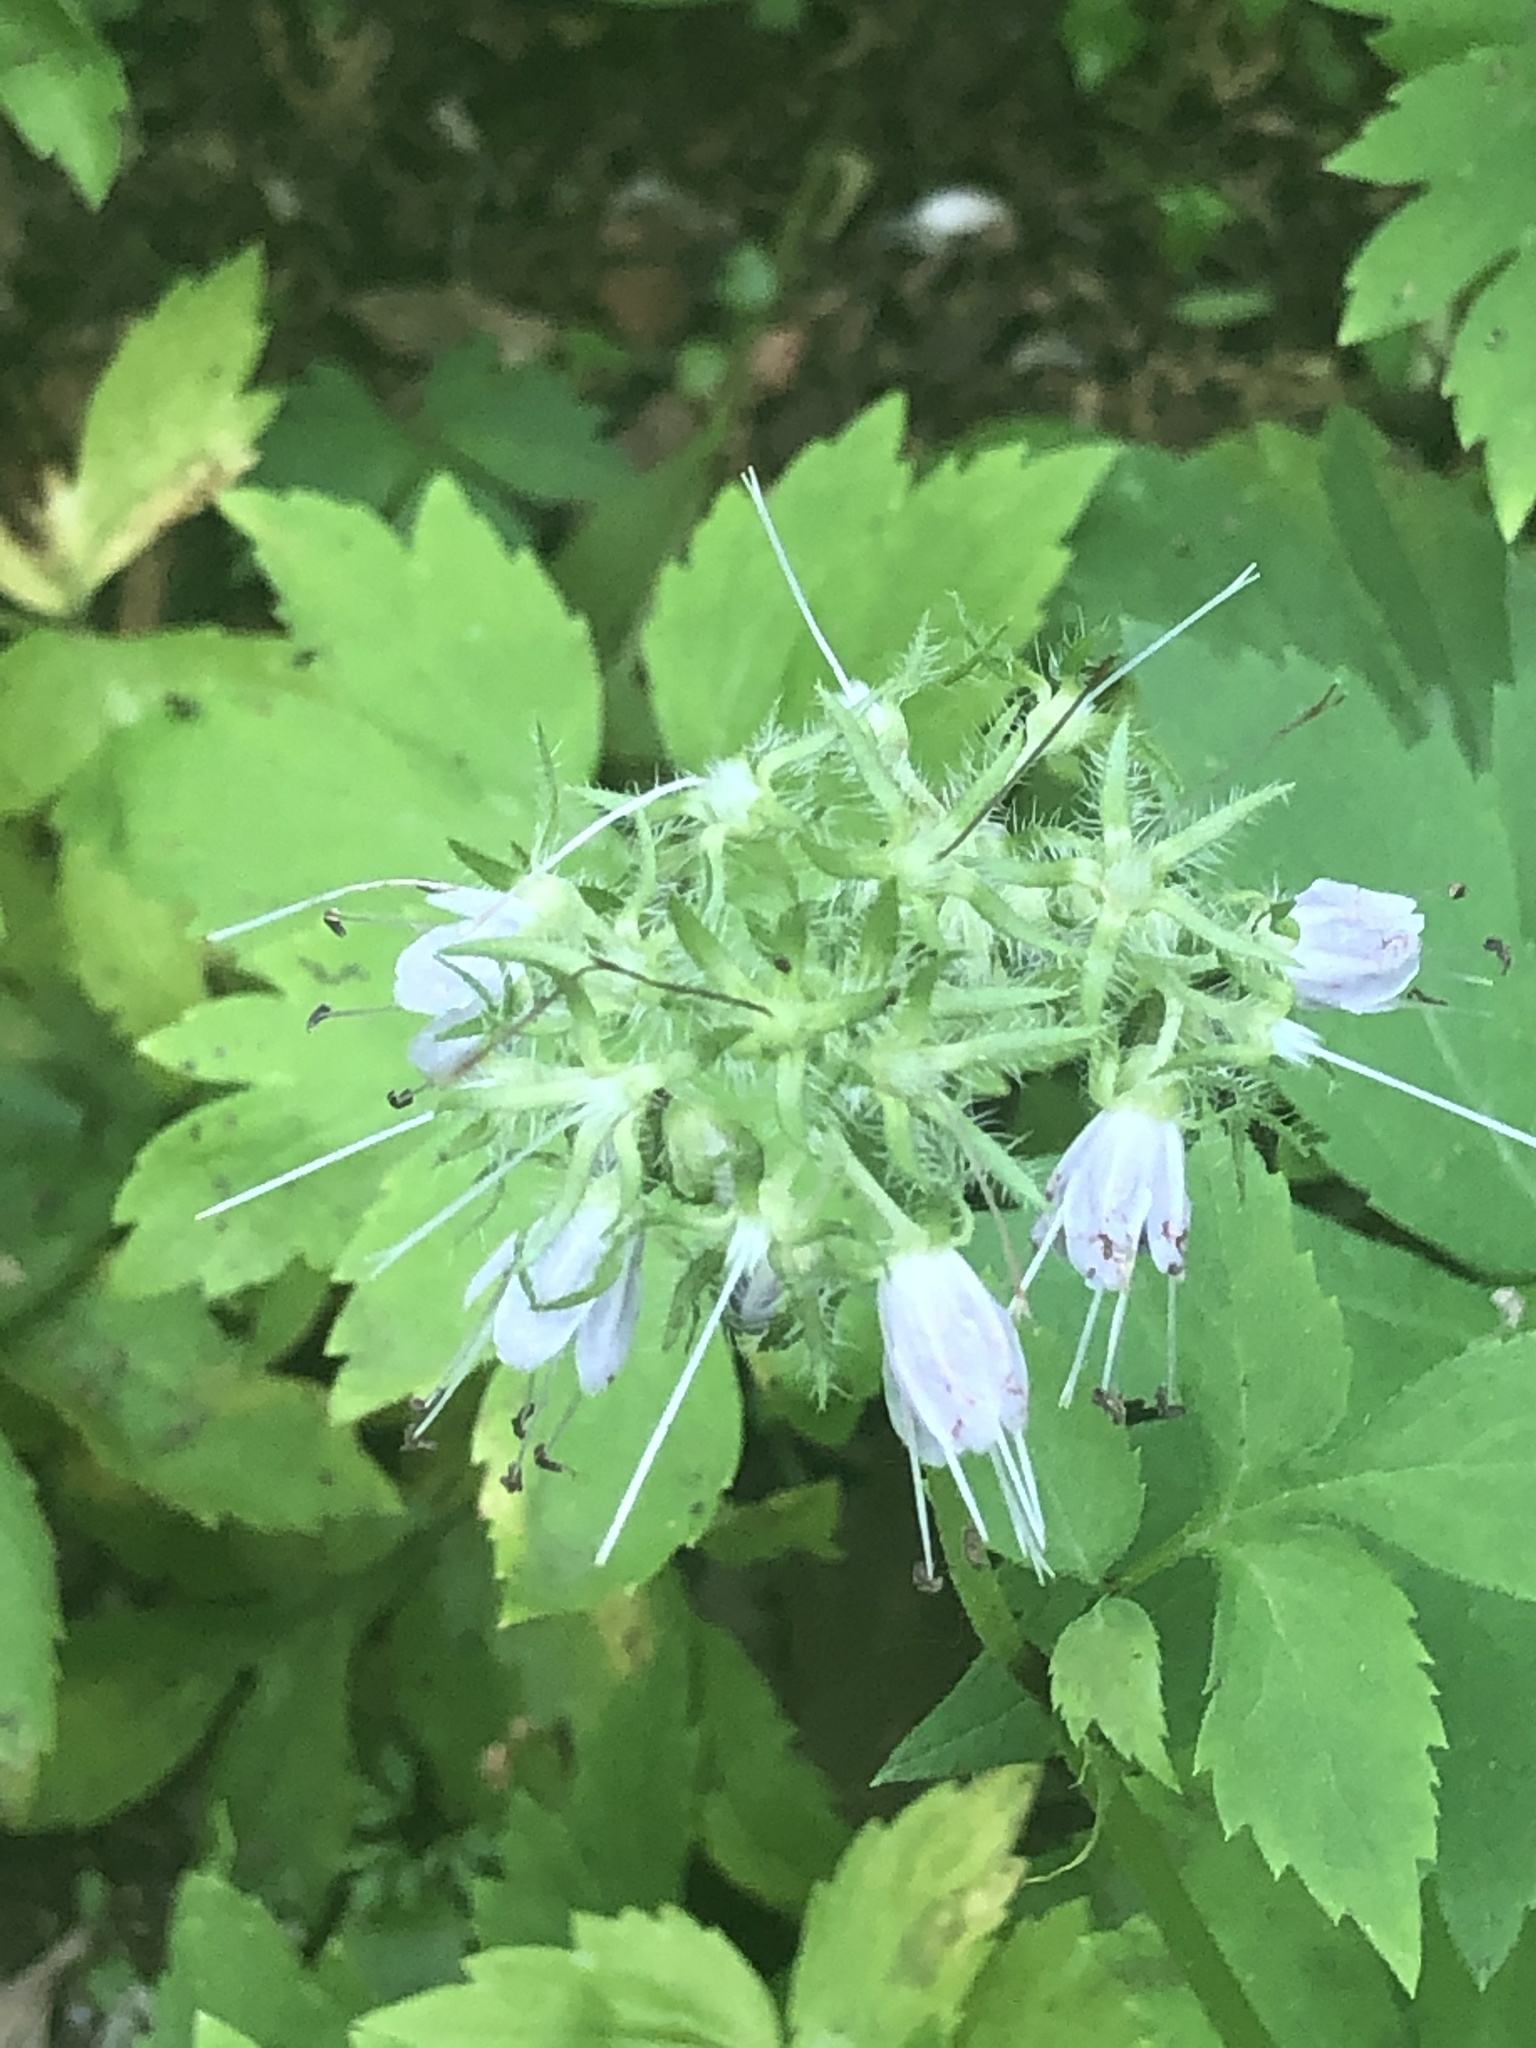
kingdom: Plantae
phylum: Tracheophyta
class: Magnoliopsida
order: Boraginales
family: Hydrophyllaceae
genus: Hydrophyllum
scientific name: Hydrophyllum virginianum
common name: Virginia waterleaf
